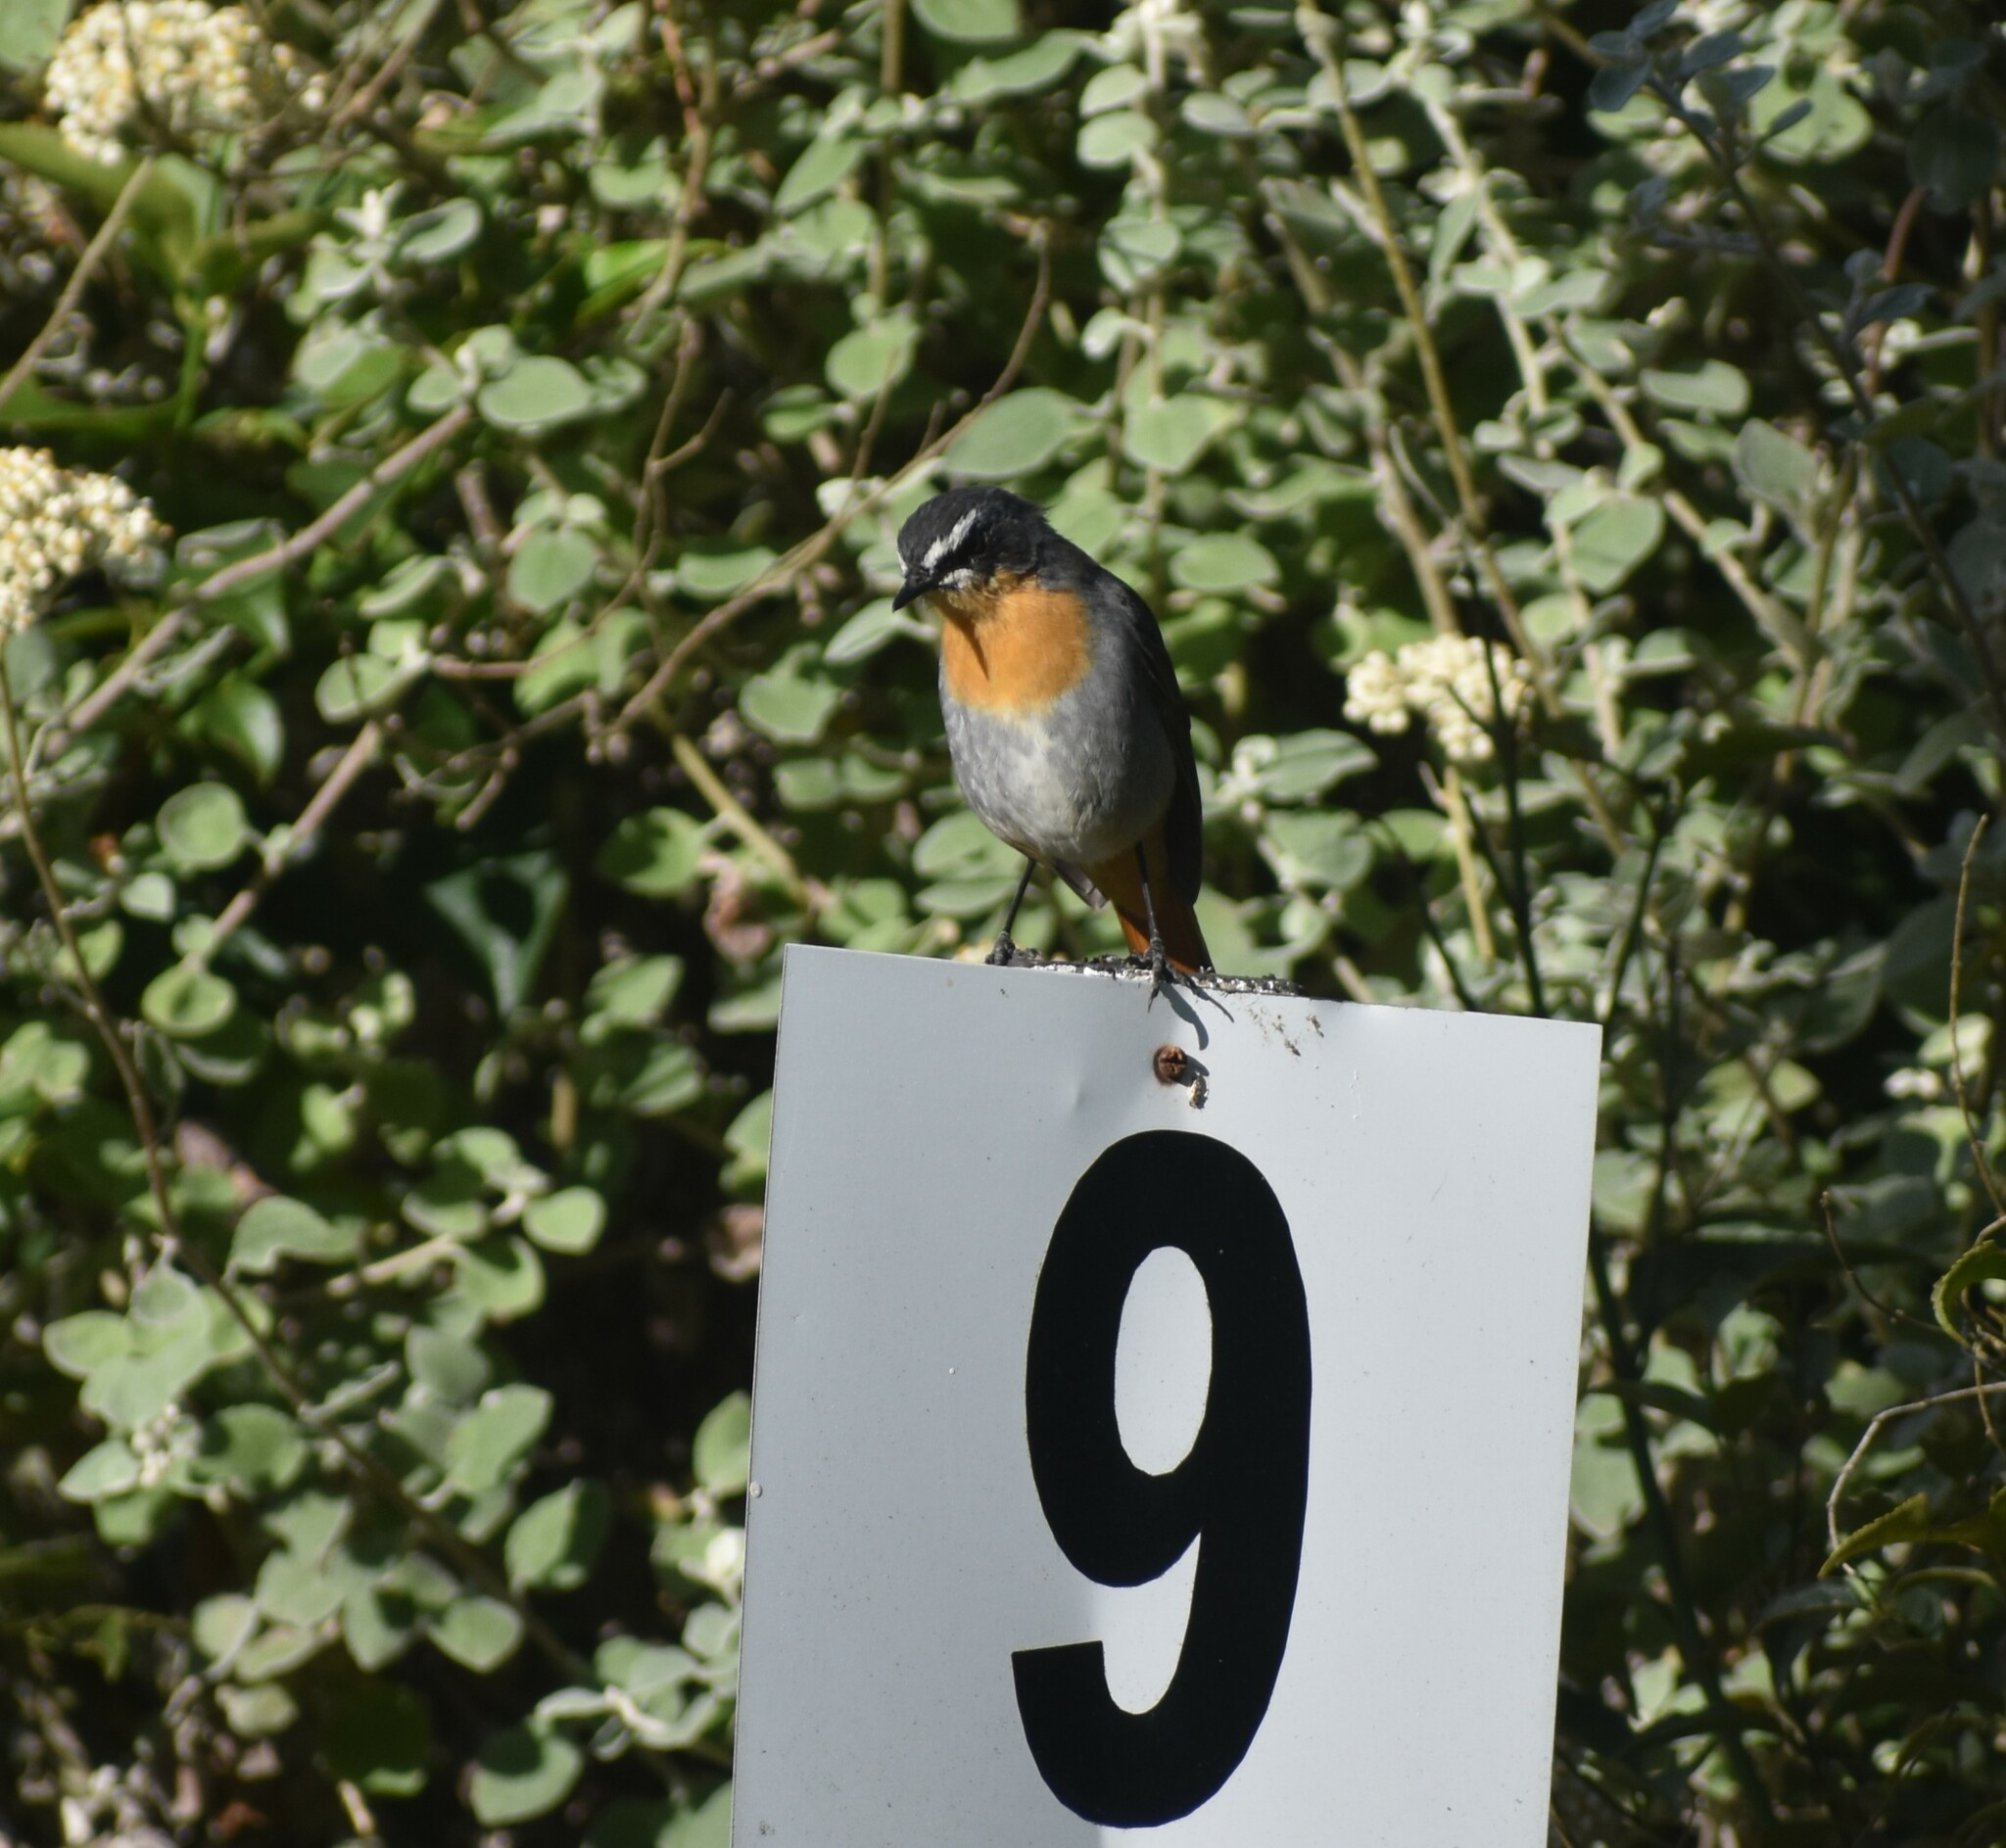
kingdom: Animalia
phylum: Chordata
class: Aves
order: Passeriformes
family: Muscicapidae
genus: Cossypha
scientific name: Cossypha caffra
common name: Cape robin-chat
